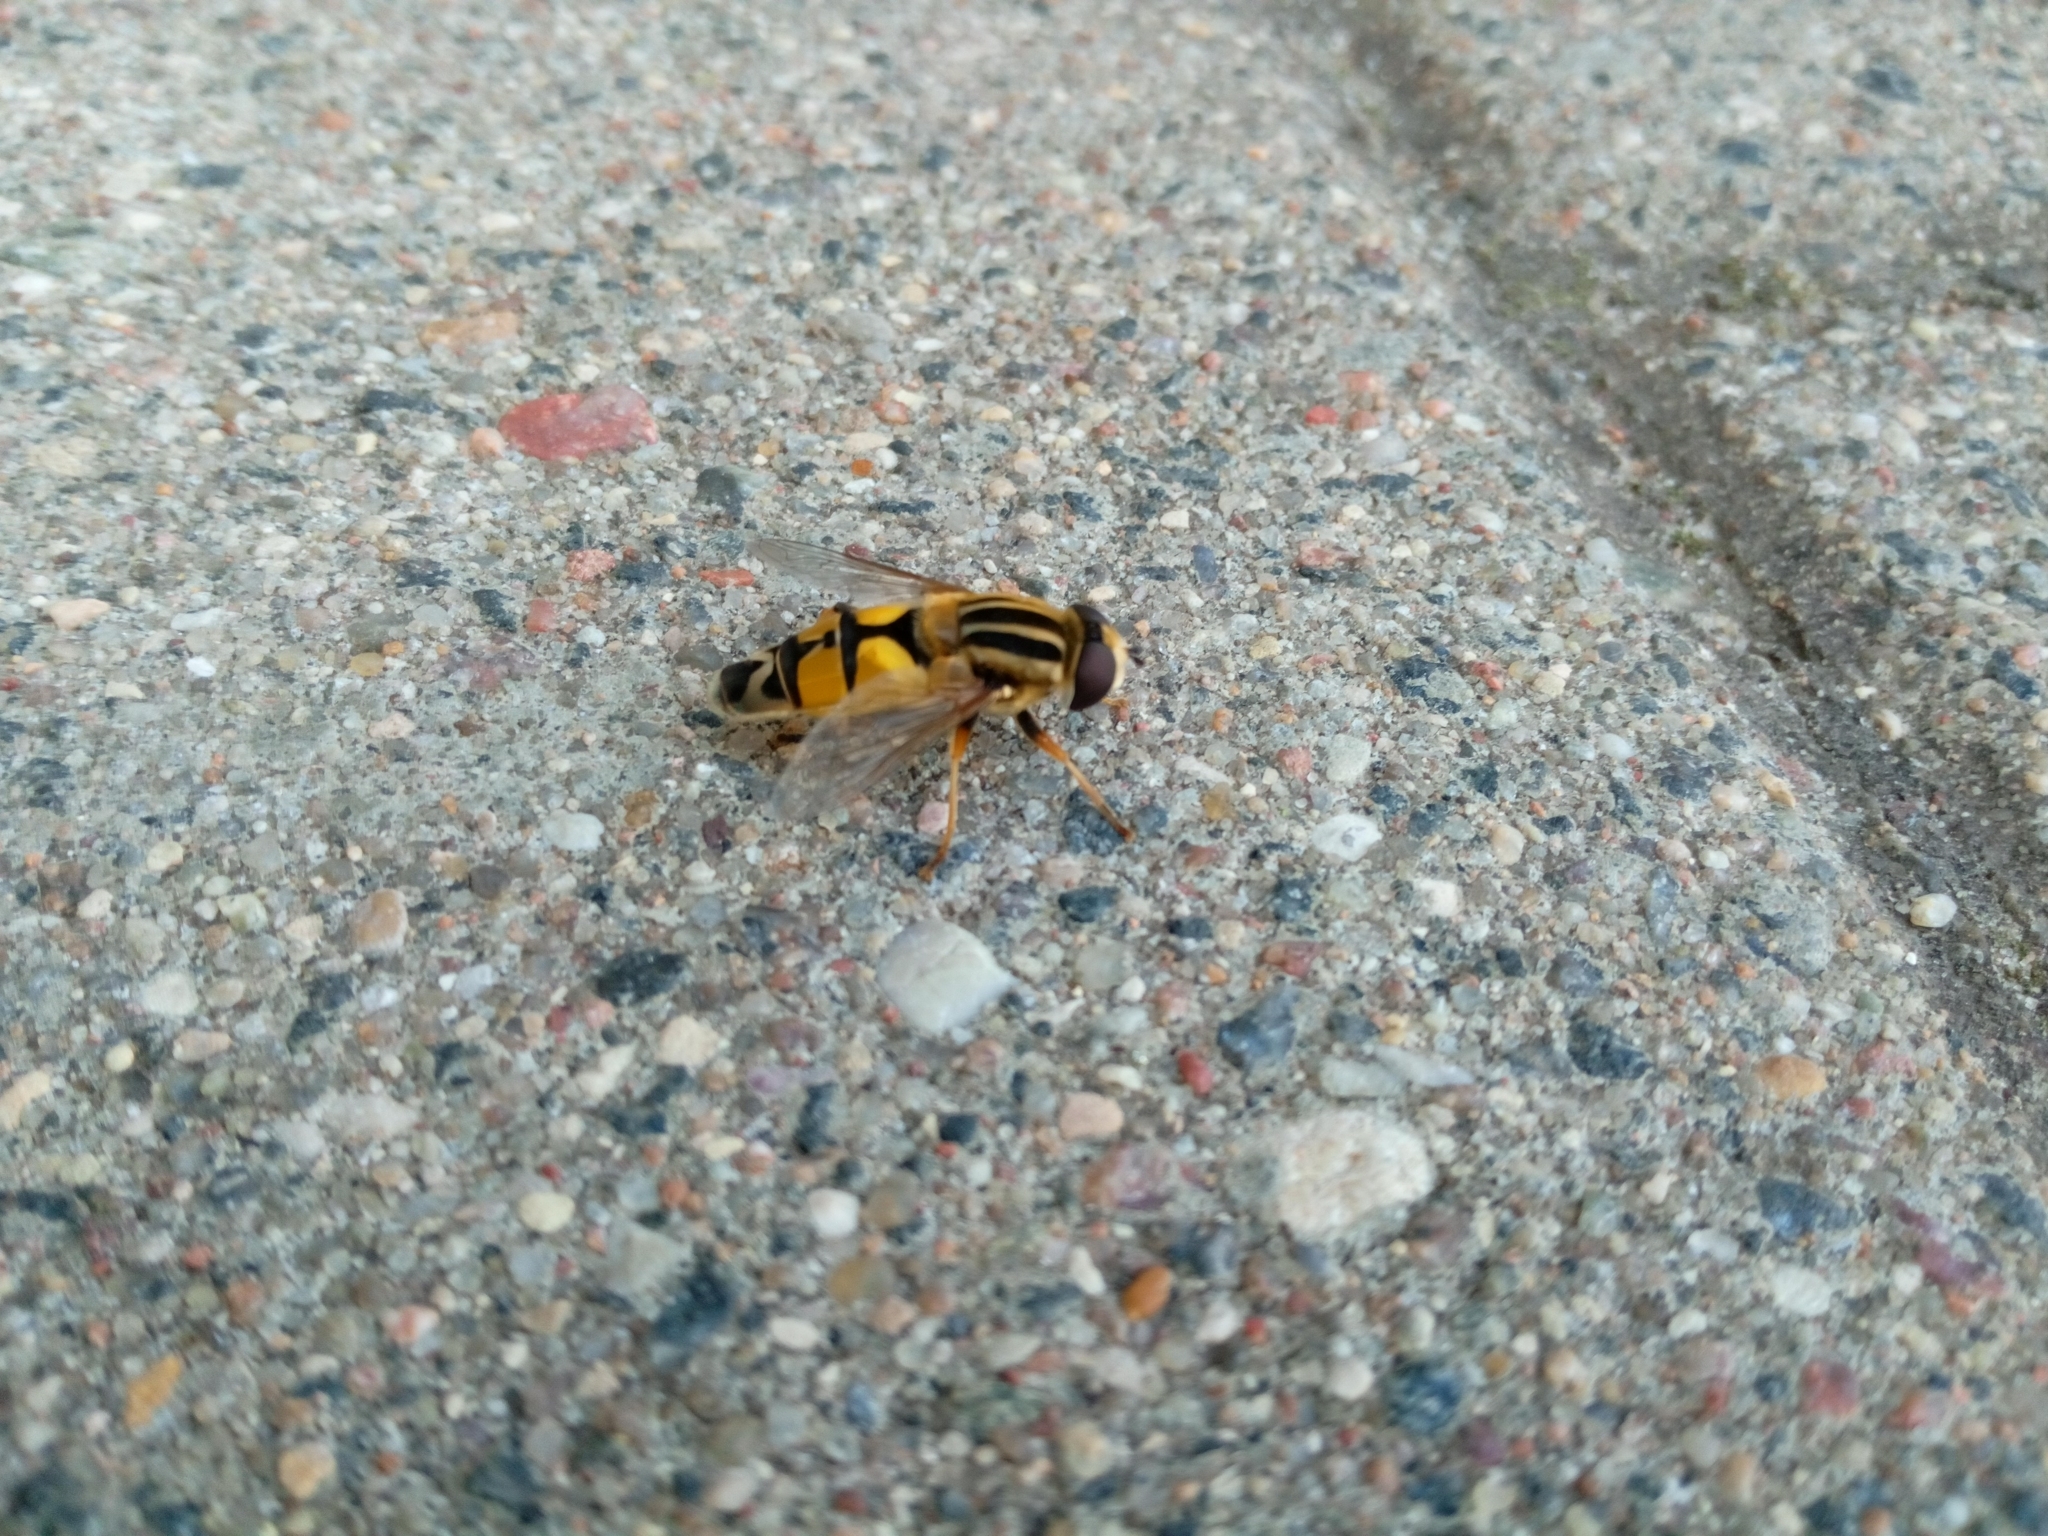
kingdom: Animalia
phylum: Arthropoda
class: Insecta
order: Diptera
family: Syrphidae
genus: Helophilus
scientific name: Helophilus trivittatus
